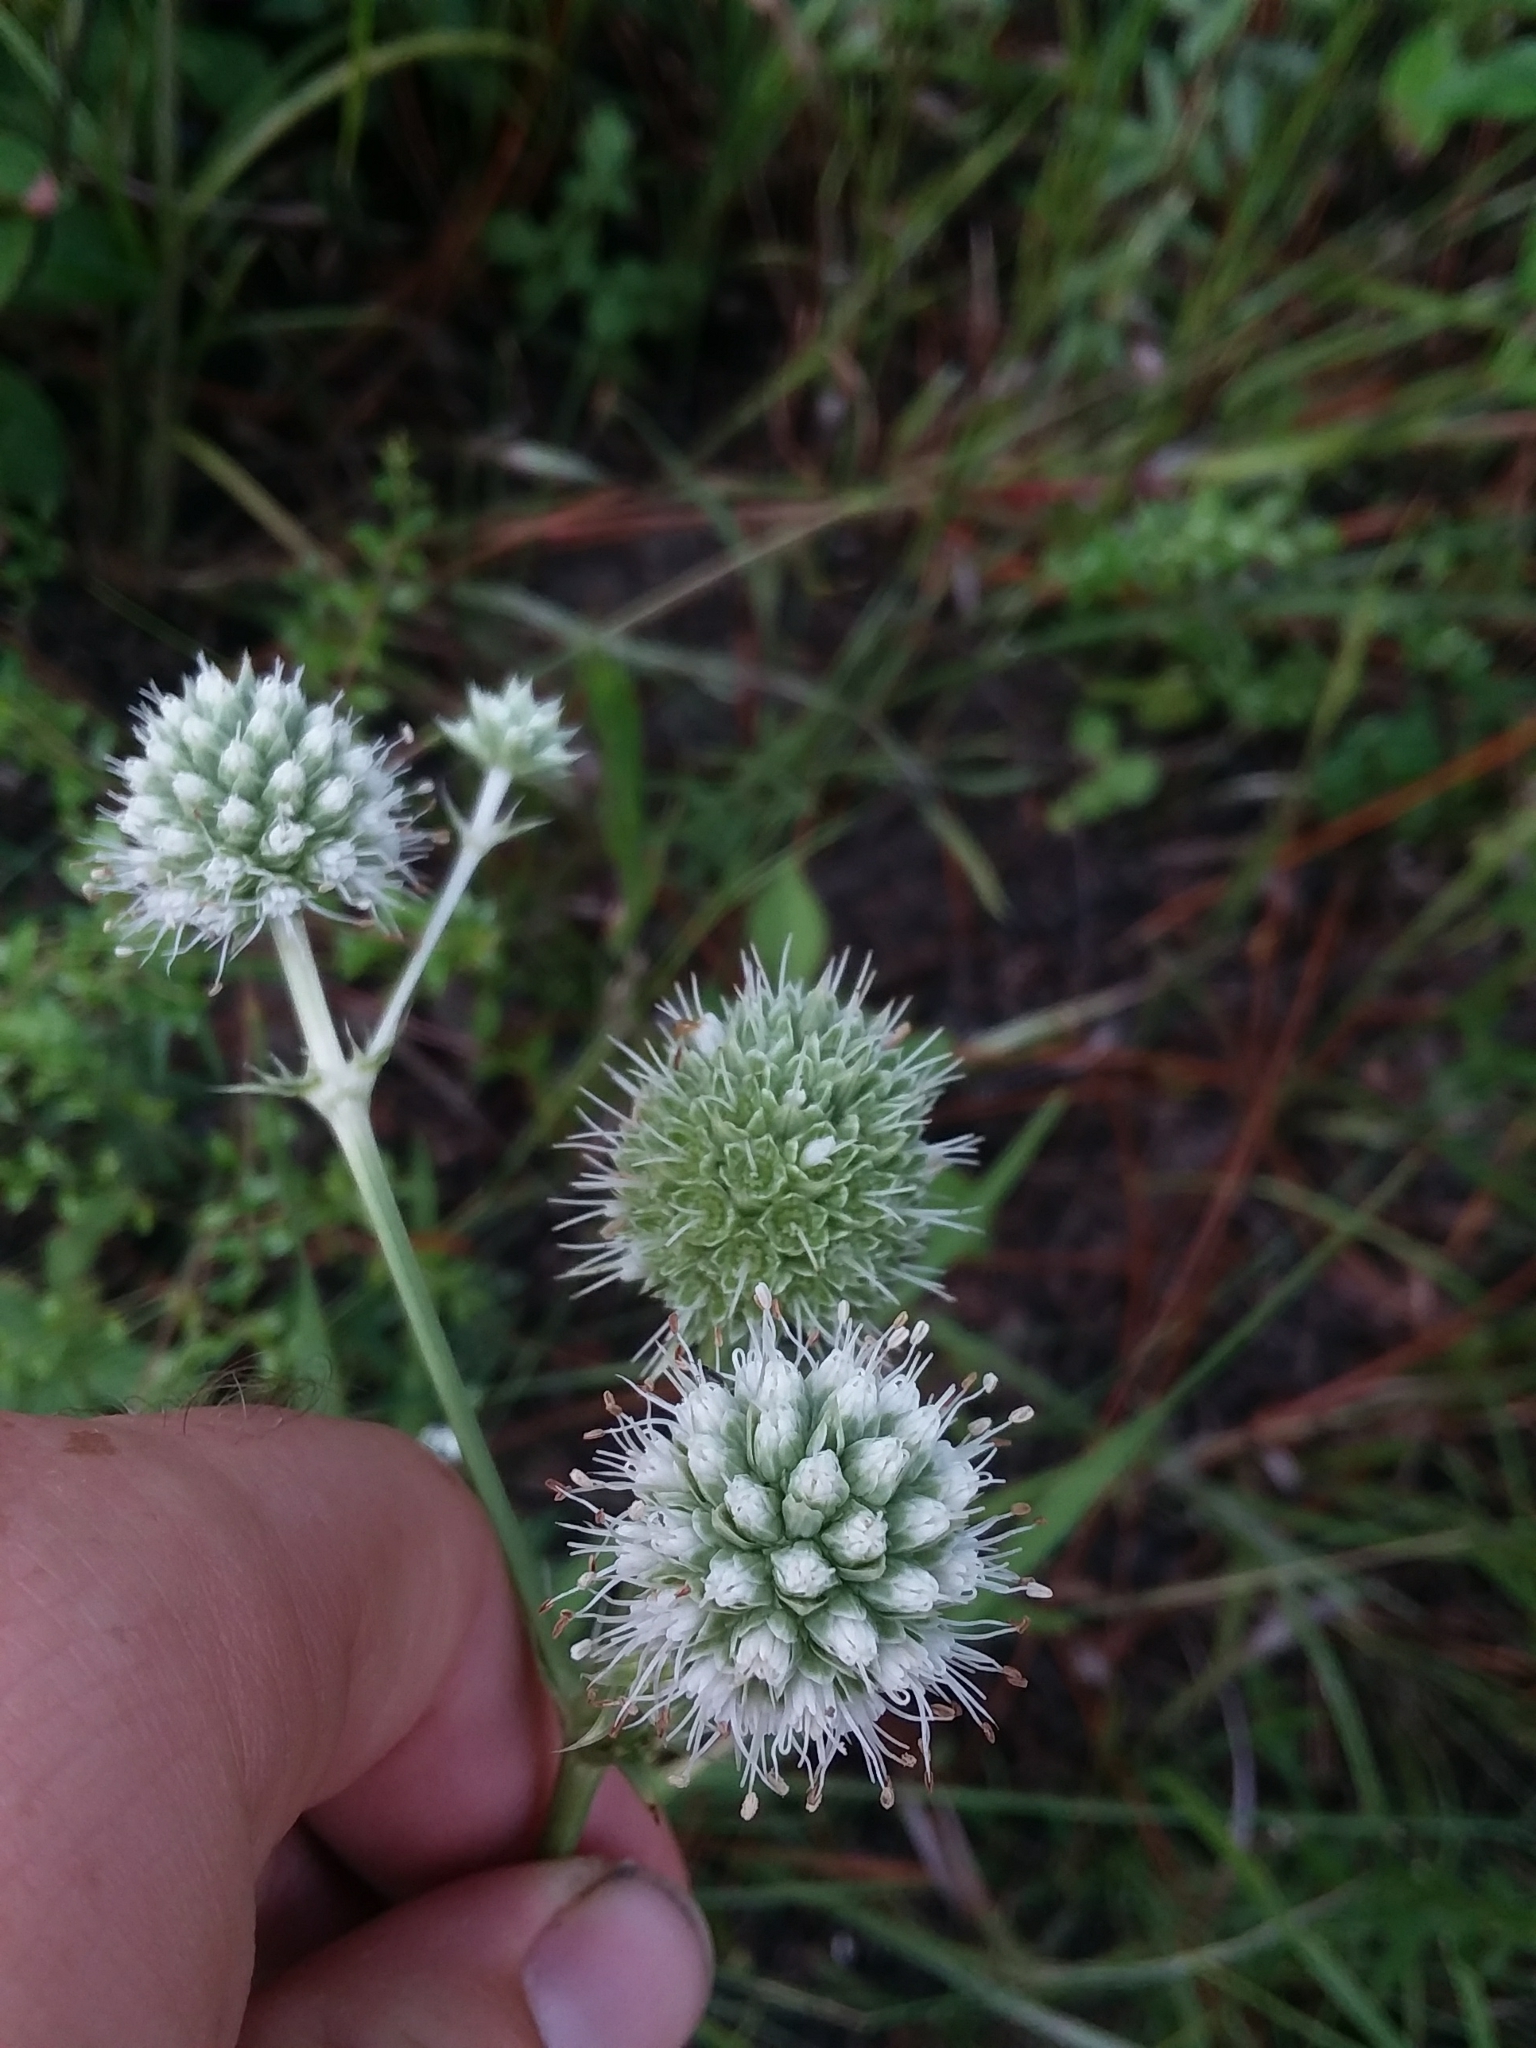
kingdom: Plantae
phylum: Tracheophyta
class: Magnoliopsida
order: Apiales
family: Apiaceae
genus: Eryngium
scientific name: Eryngium yuccifolium
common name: Button eryngo
